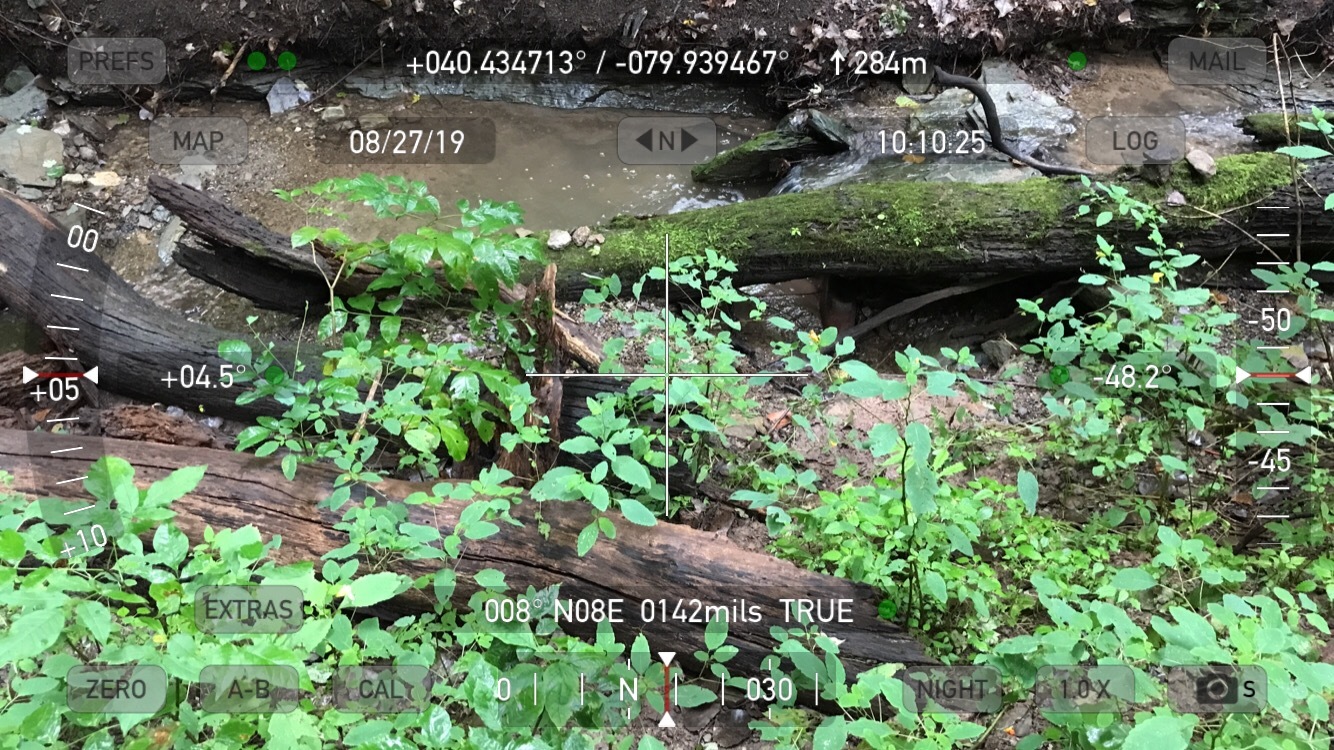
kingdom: Plantae
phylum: Tracheophyta
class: Magnoliopsida
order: Ericales
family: Balsaminaceae
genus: Impatiens
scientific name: Impatiens pallida
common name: Pale snapweed
